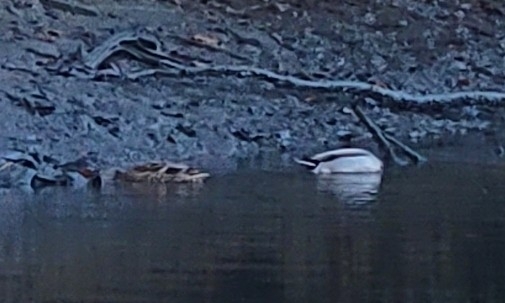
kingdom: Animalia
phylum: Chordata
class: Aves
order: Anseriformes
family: Anatidae
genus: Anas
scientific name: Anas platyrhynchos
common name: Mallard
